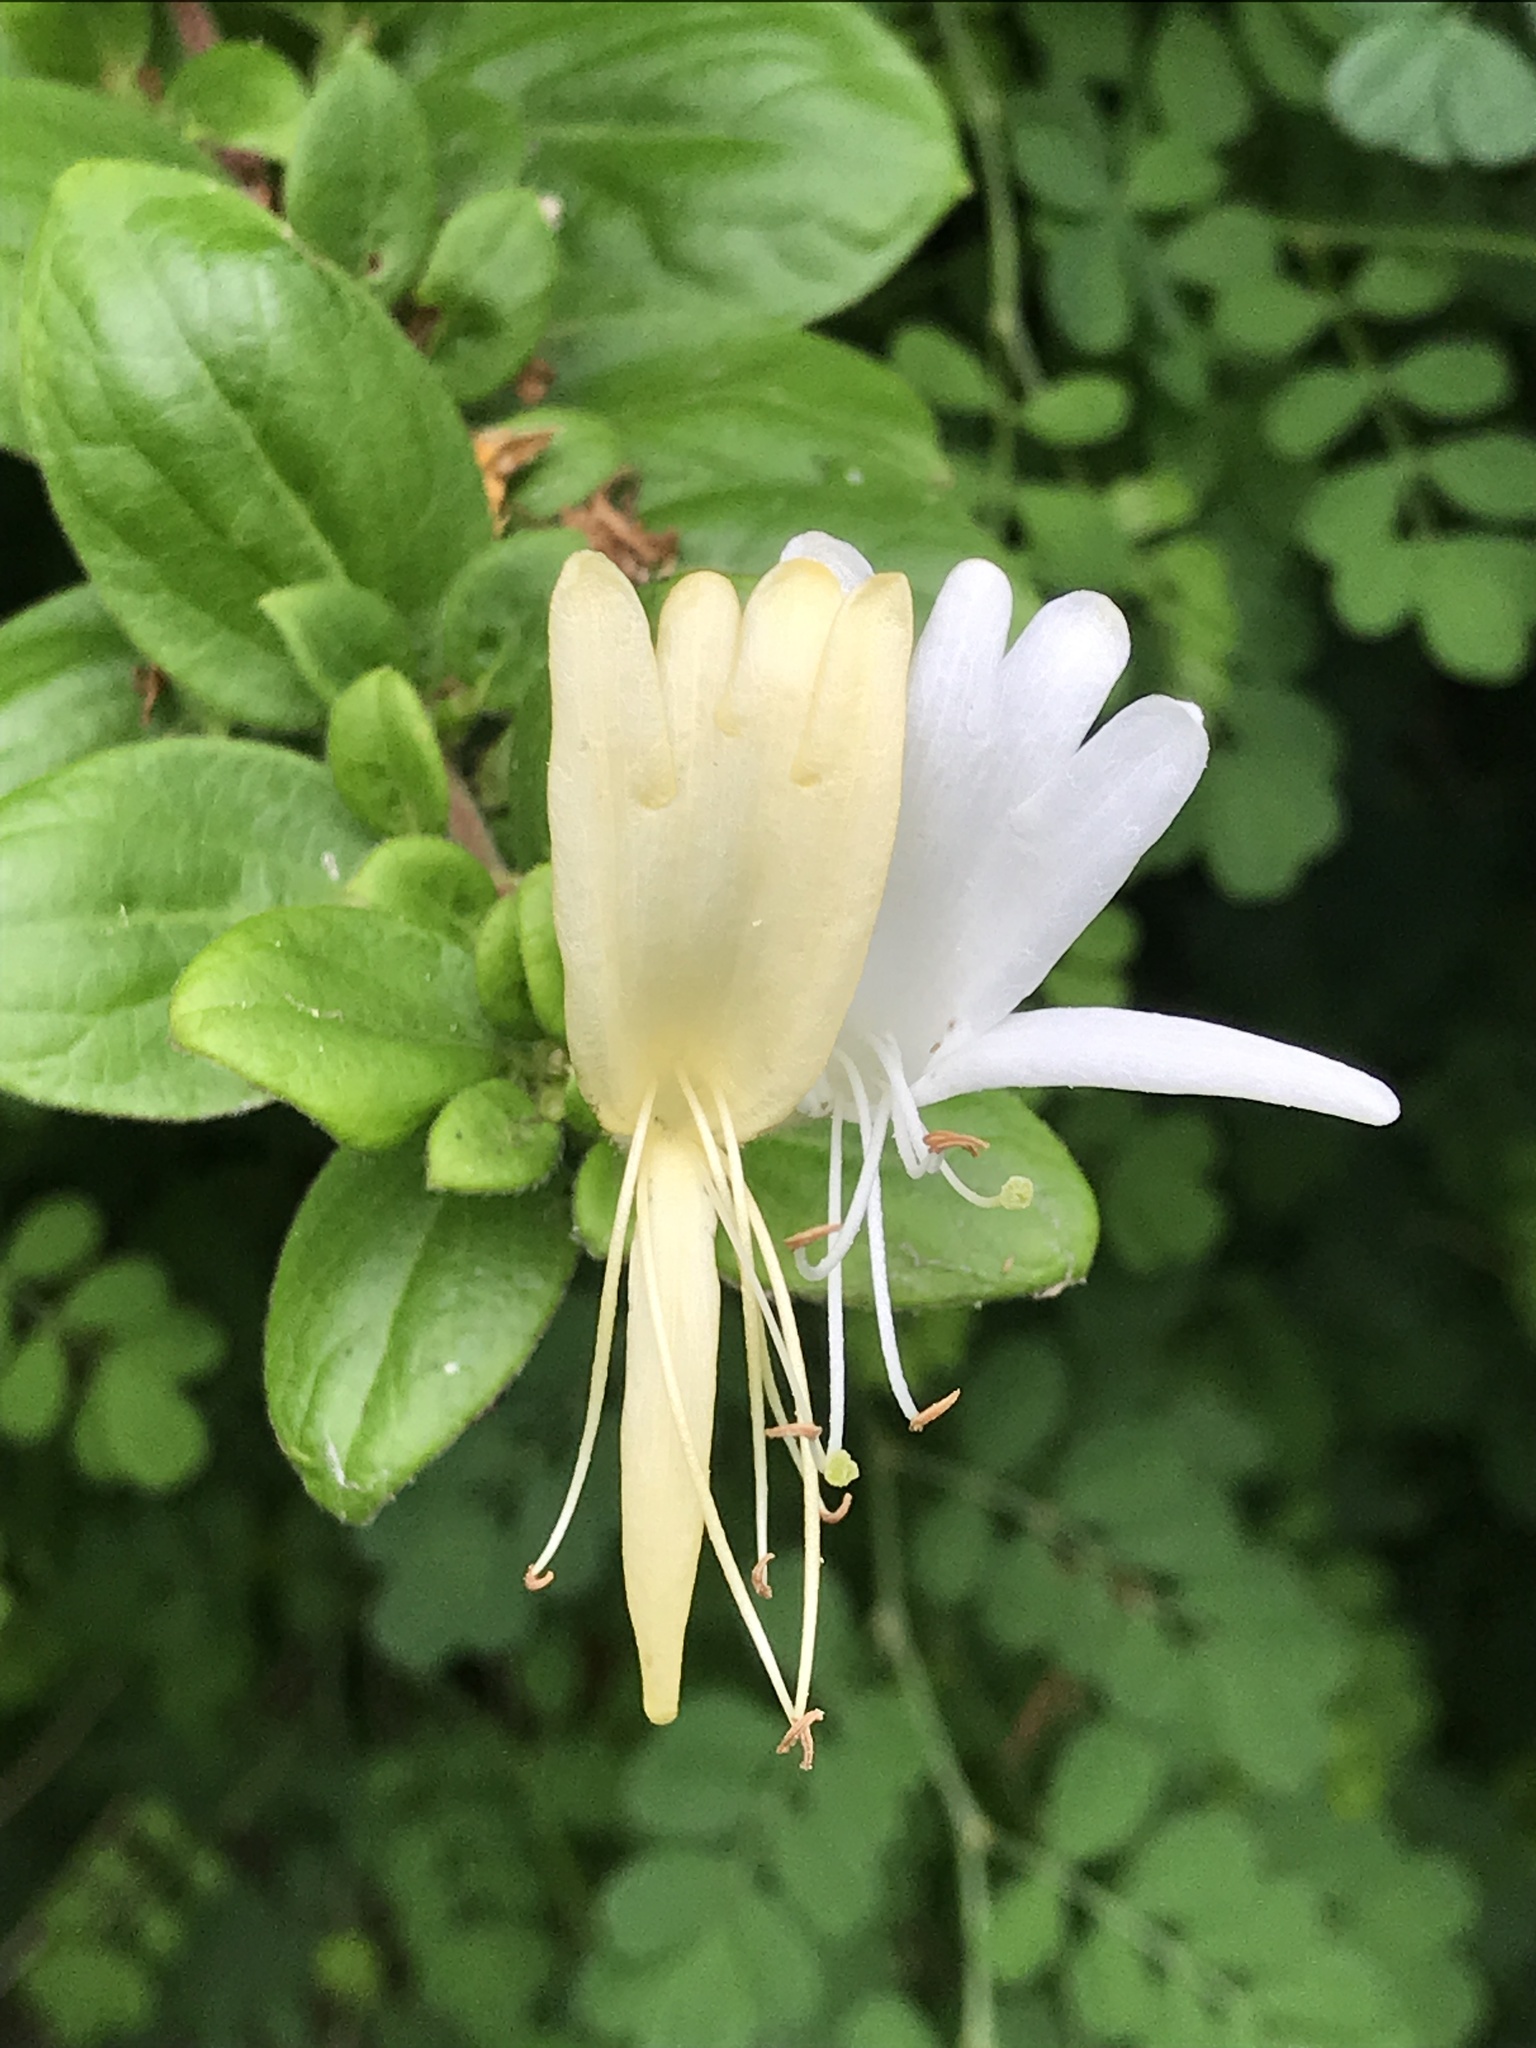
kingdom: Plantae
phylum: Tracheophyta
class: Magnoliopsida
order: Dipsacales
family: Caprifoliaceae
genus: Lonicera
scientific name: Lonicera japonica
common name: Japanese honeysuckle
